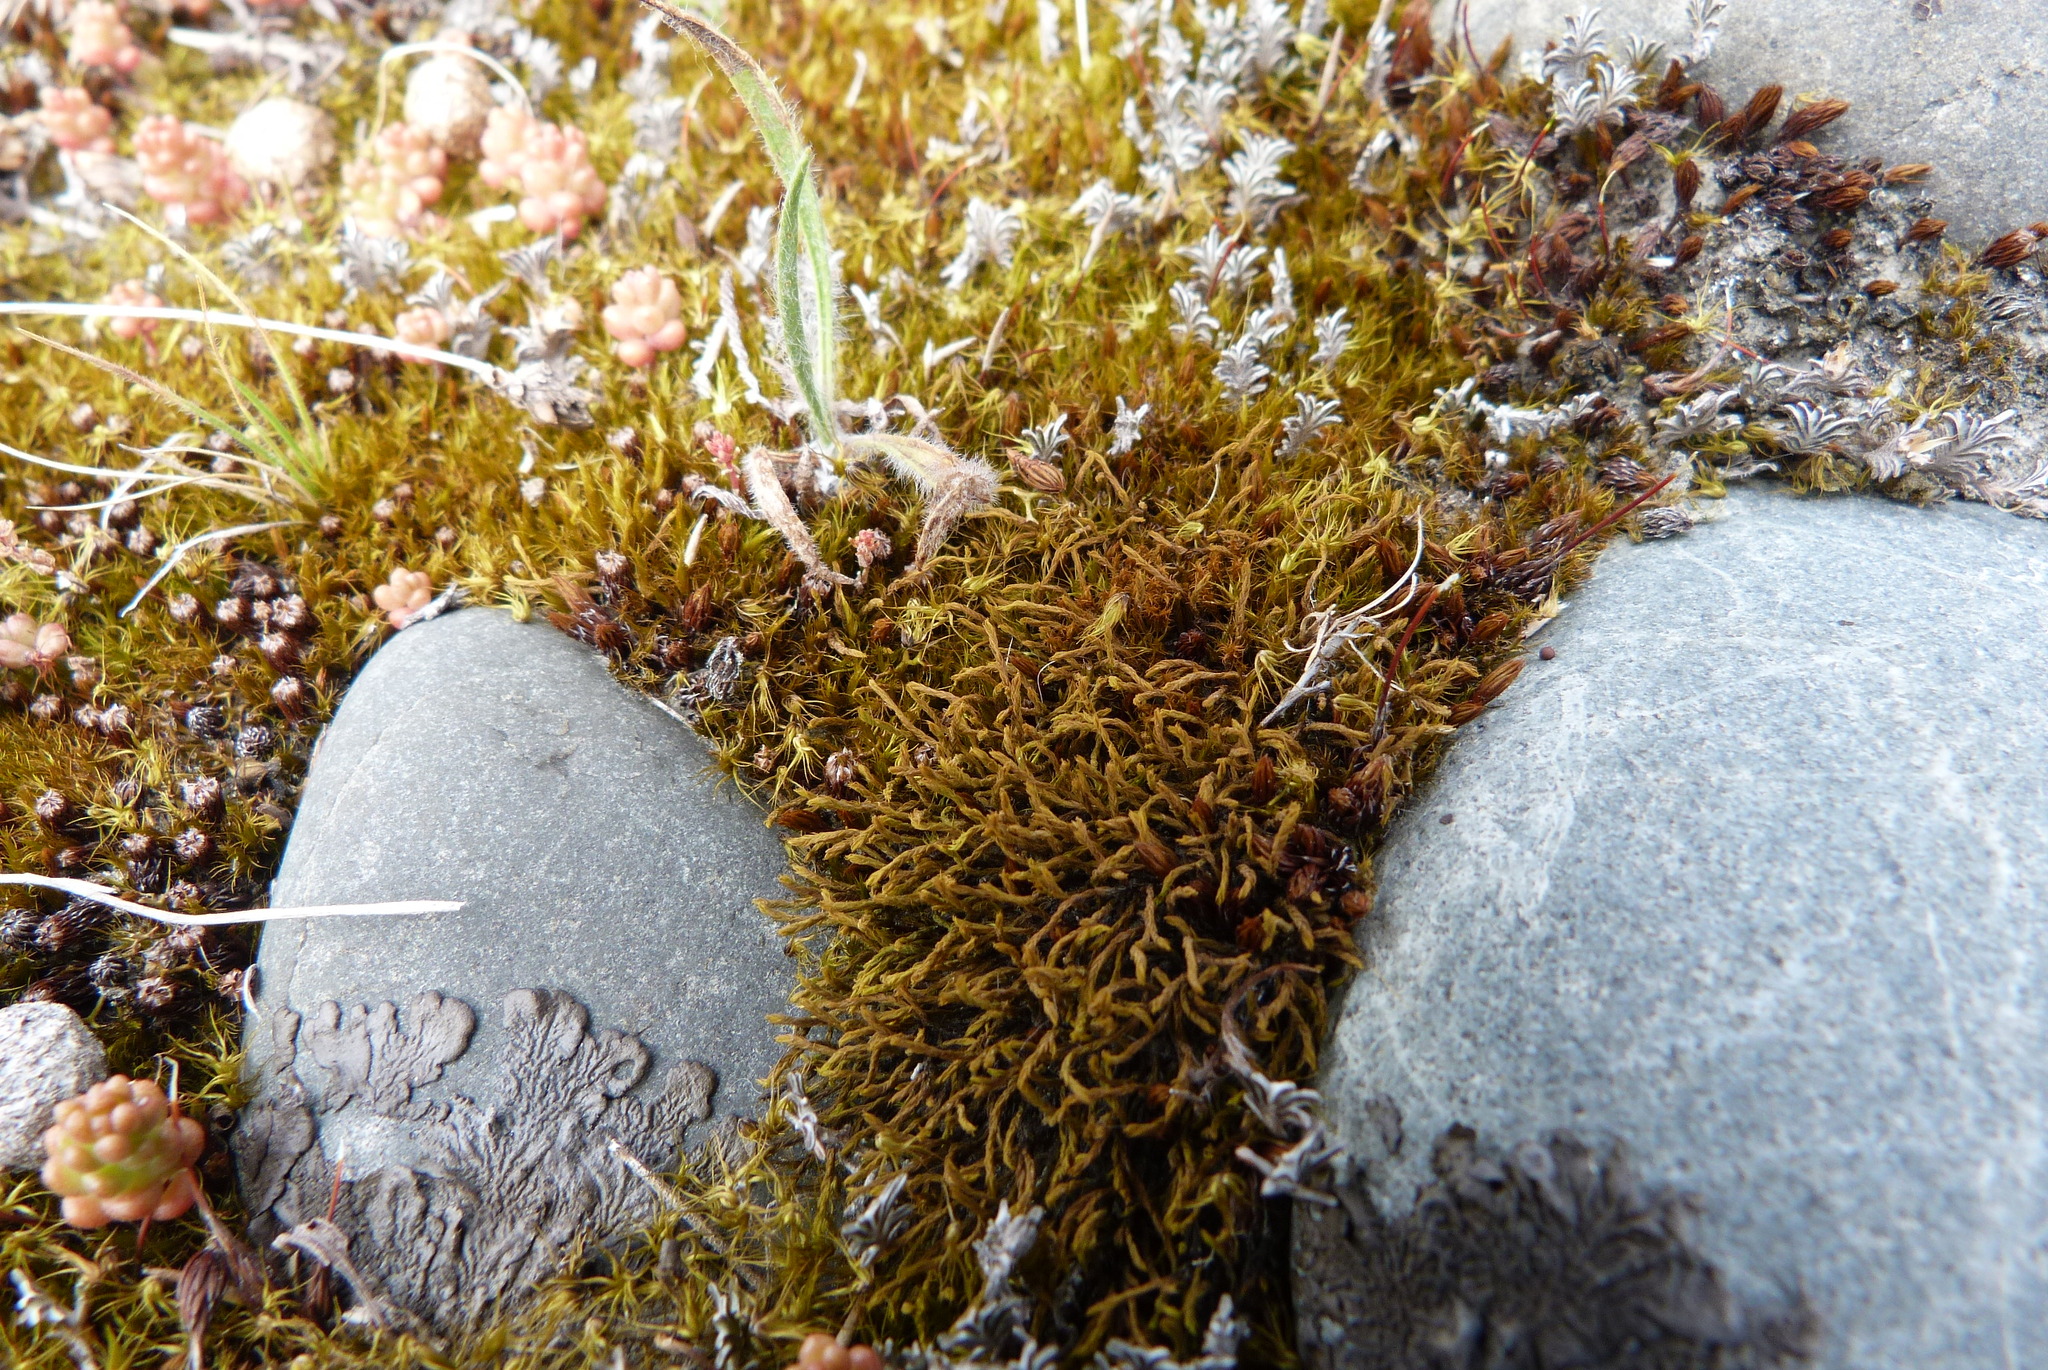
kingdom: Plantae
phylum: Bryophyta
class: Bryopsida
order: Pottiales
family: Pottiaceae
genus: Triquetrella
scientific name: Triquetrella papillata
